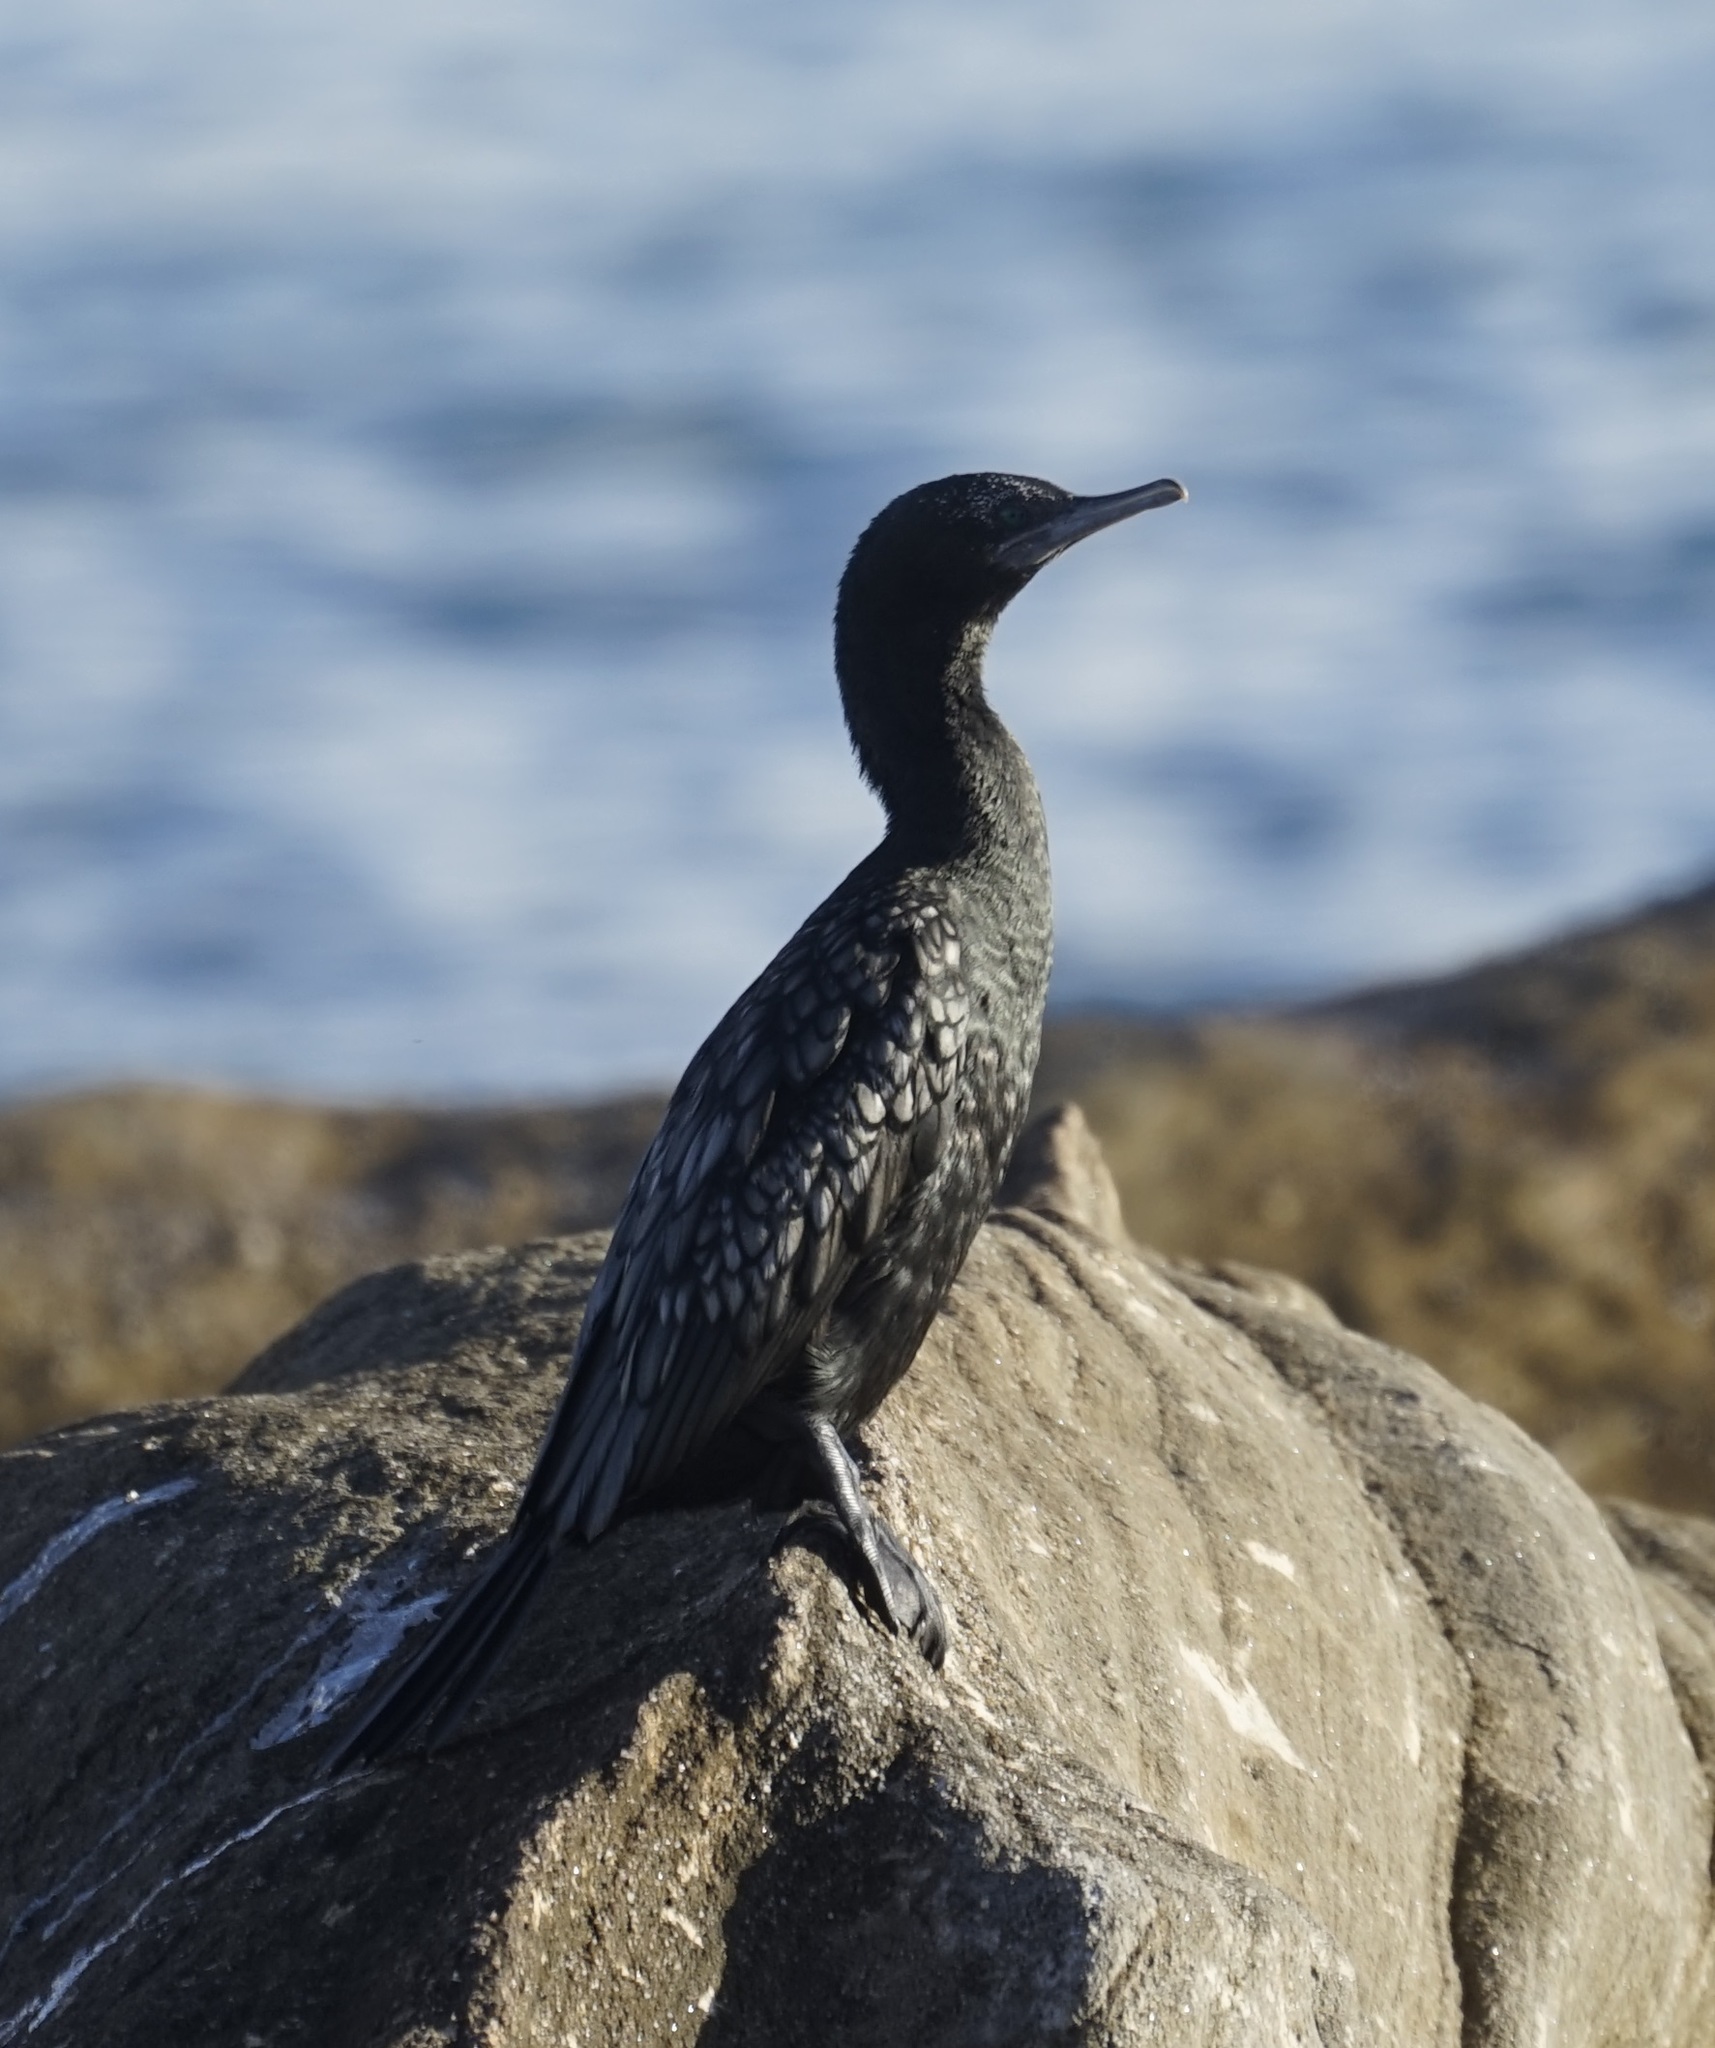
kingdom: Animalia
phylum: Chordata
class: Aves
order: Suliformes
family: Phalacrocoracidae
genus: Phalacrocorax
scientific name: Phalacrocorax sulcirostris
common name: Little black cormorant
